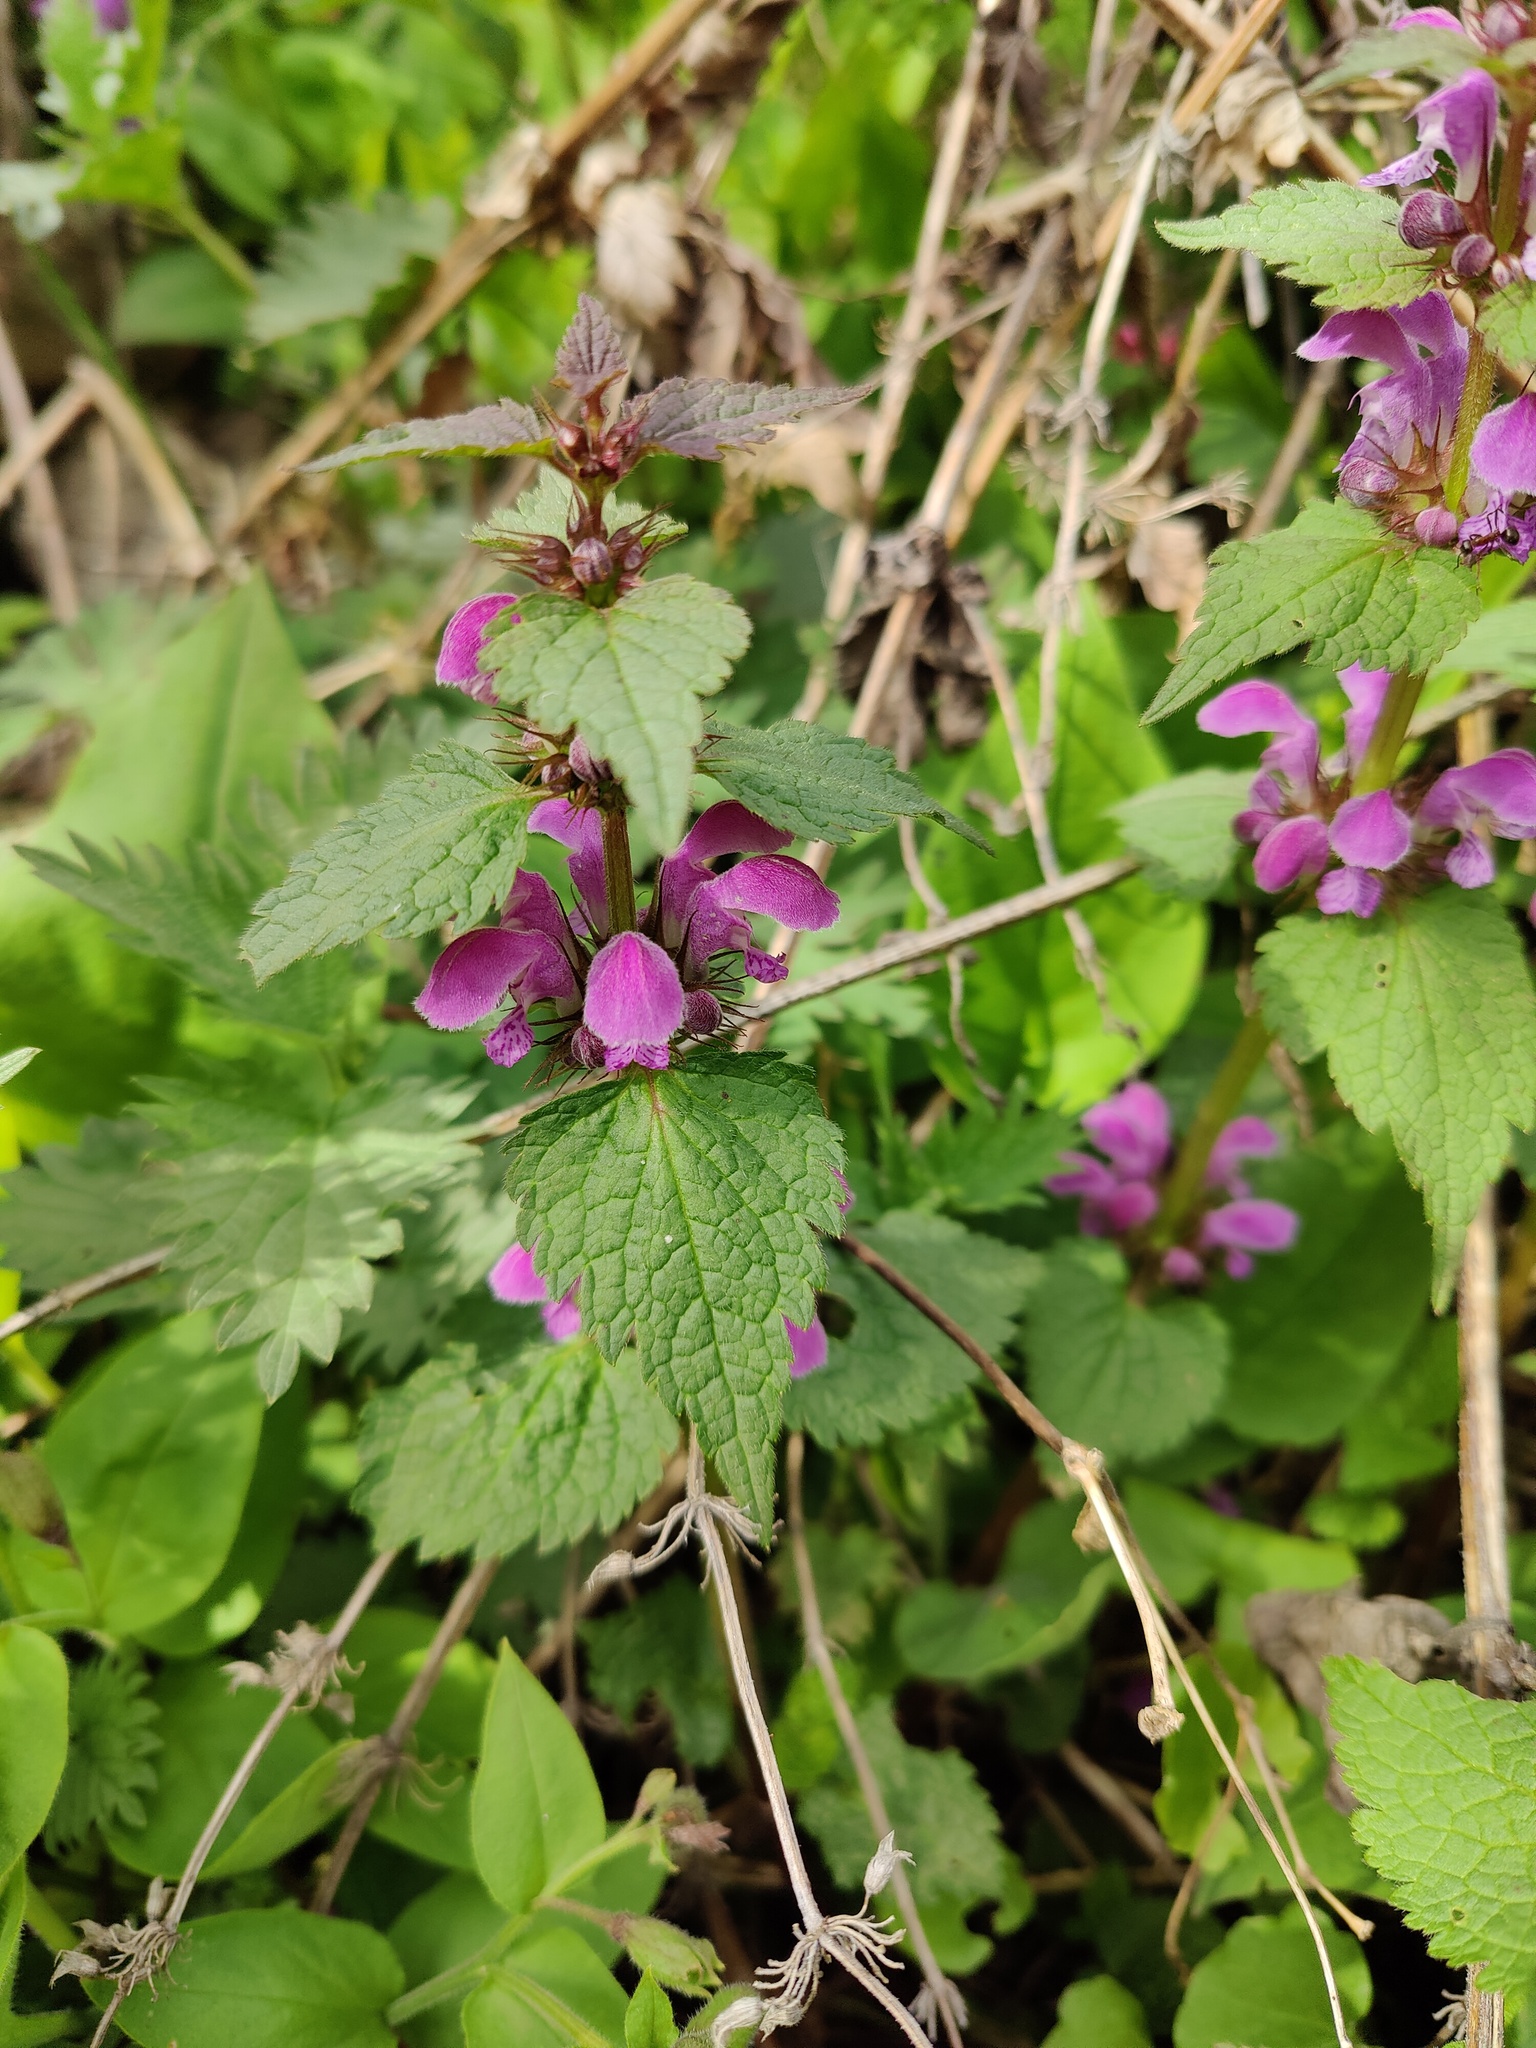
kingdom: Plantae
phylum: Tracheophyta
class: Magnoliopsida
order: Lamiales
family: Lamiaceae
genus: Lamium
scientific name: Lamium maculatum
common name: Spotted dead-nettle
